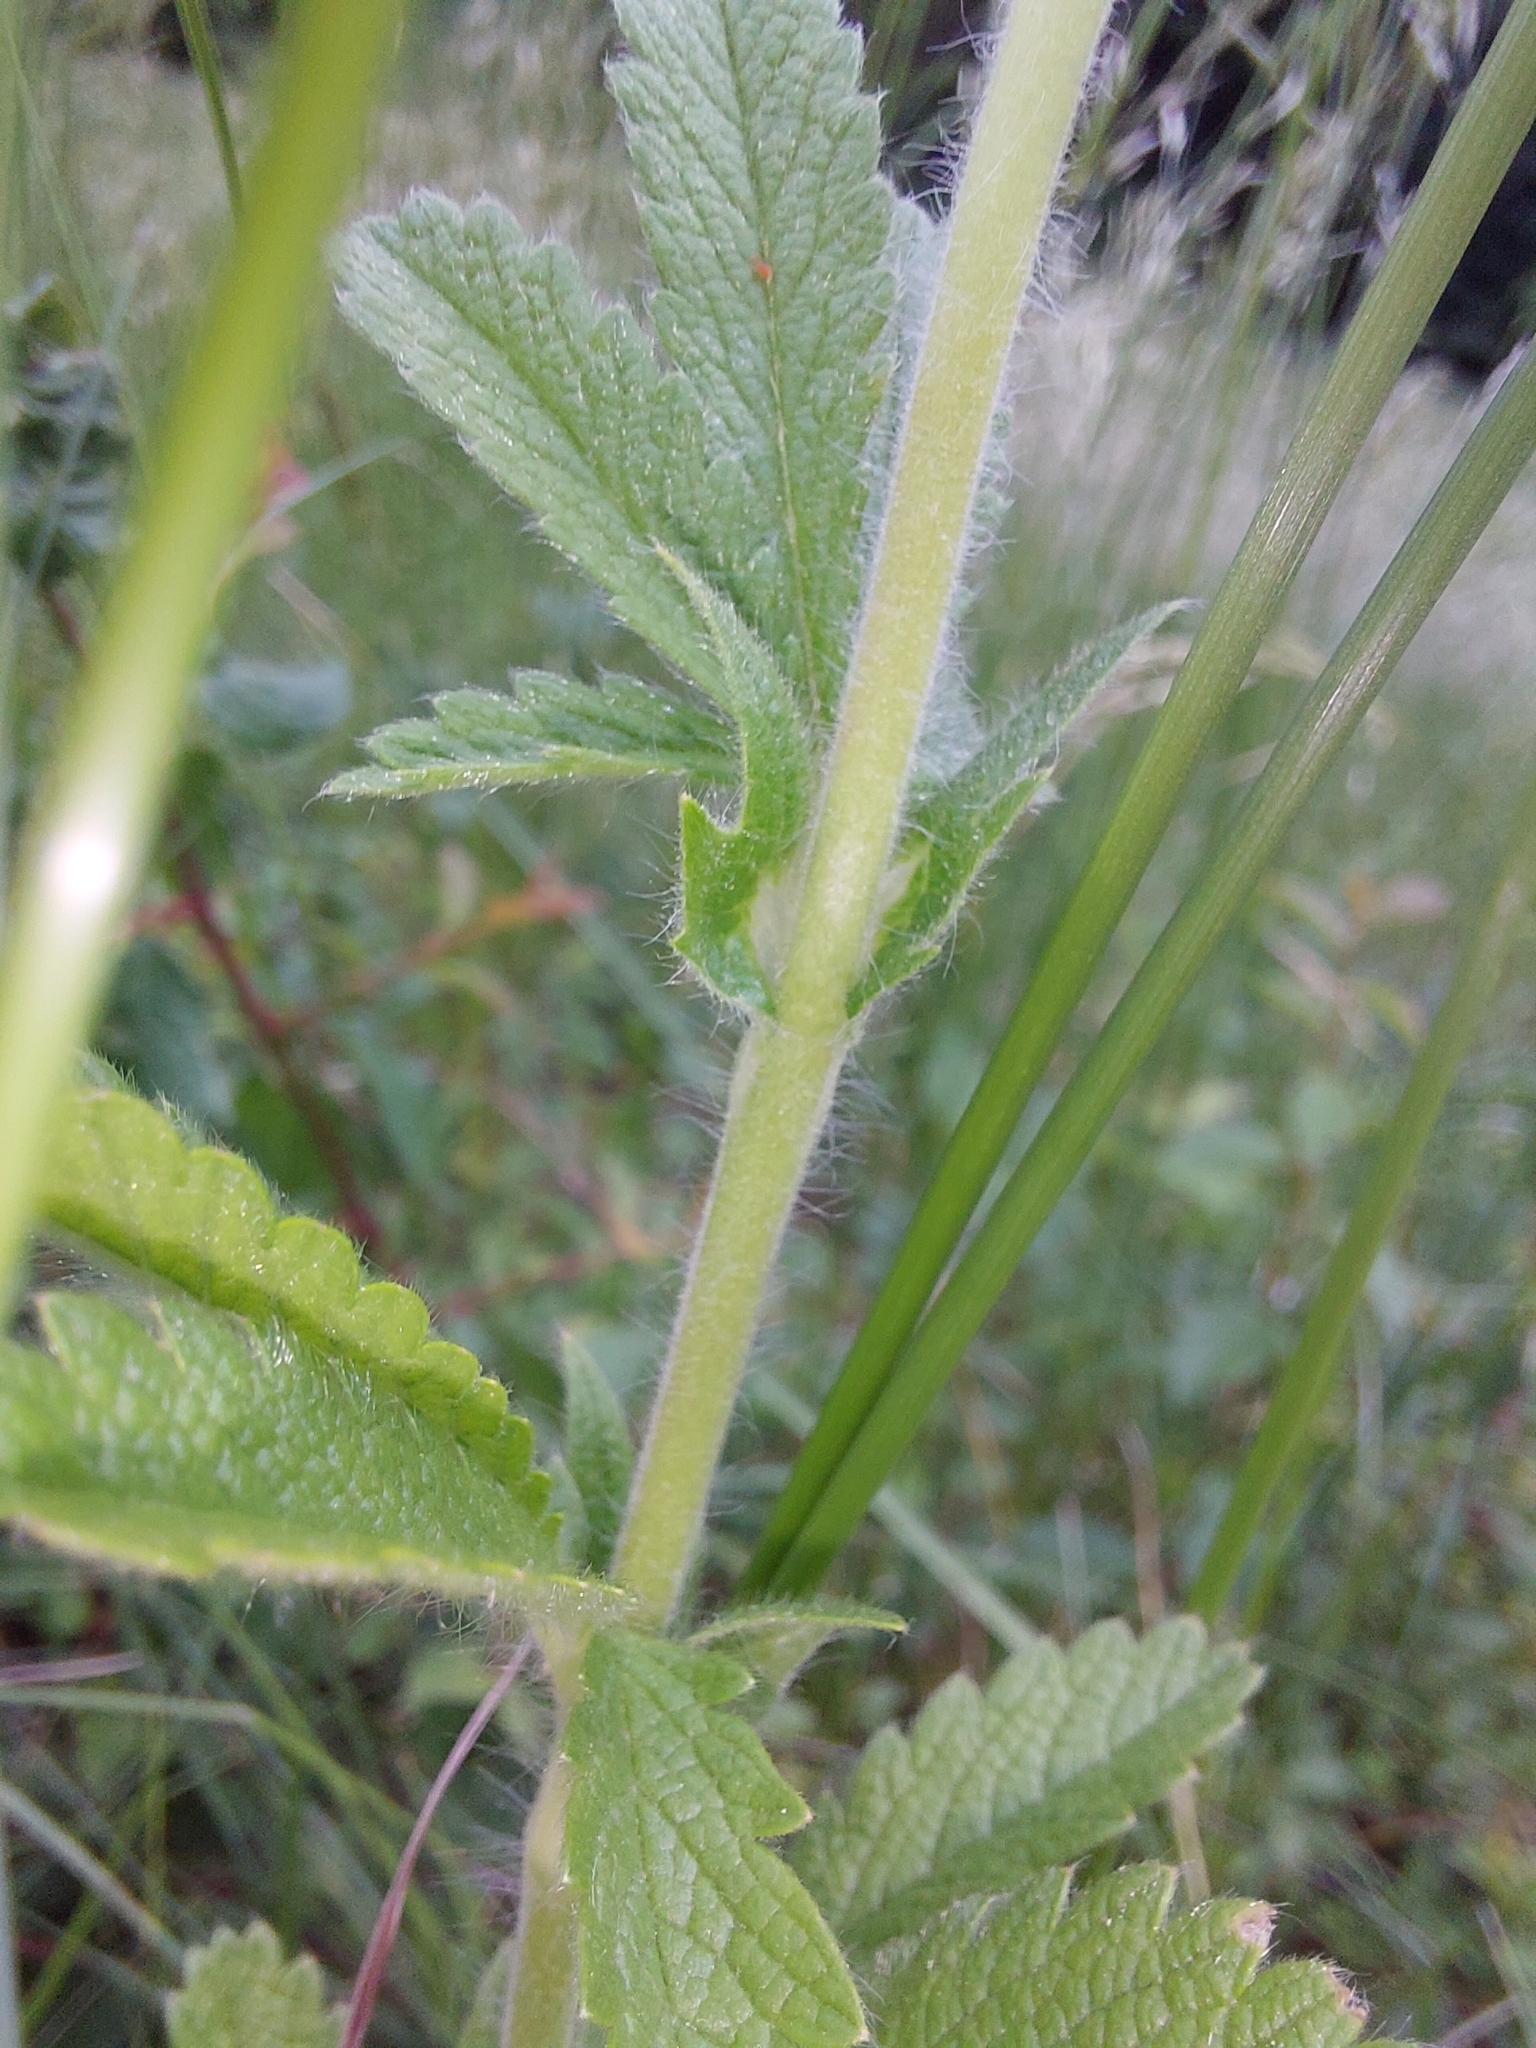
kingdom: Plantae
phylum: Tracheophyta
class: Magnoliopsida
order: Rosales
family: Rosaceae
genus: Potentilla
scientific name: Potentilla recta
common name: Sulphur cinquefoil
